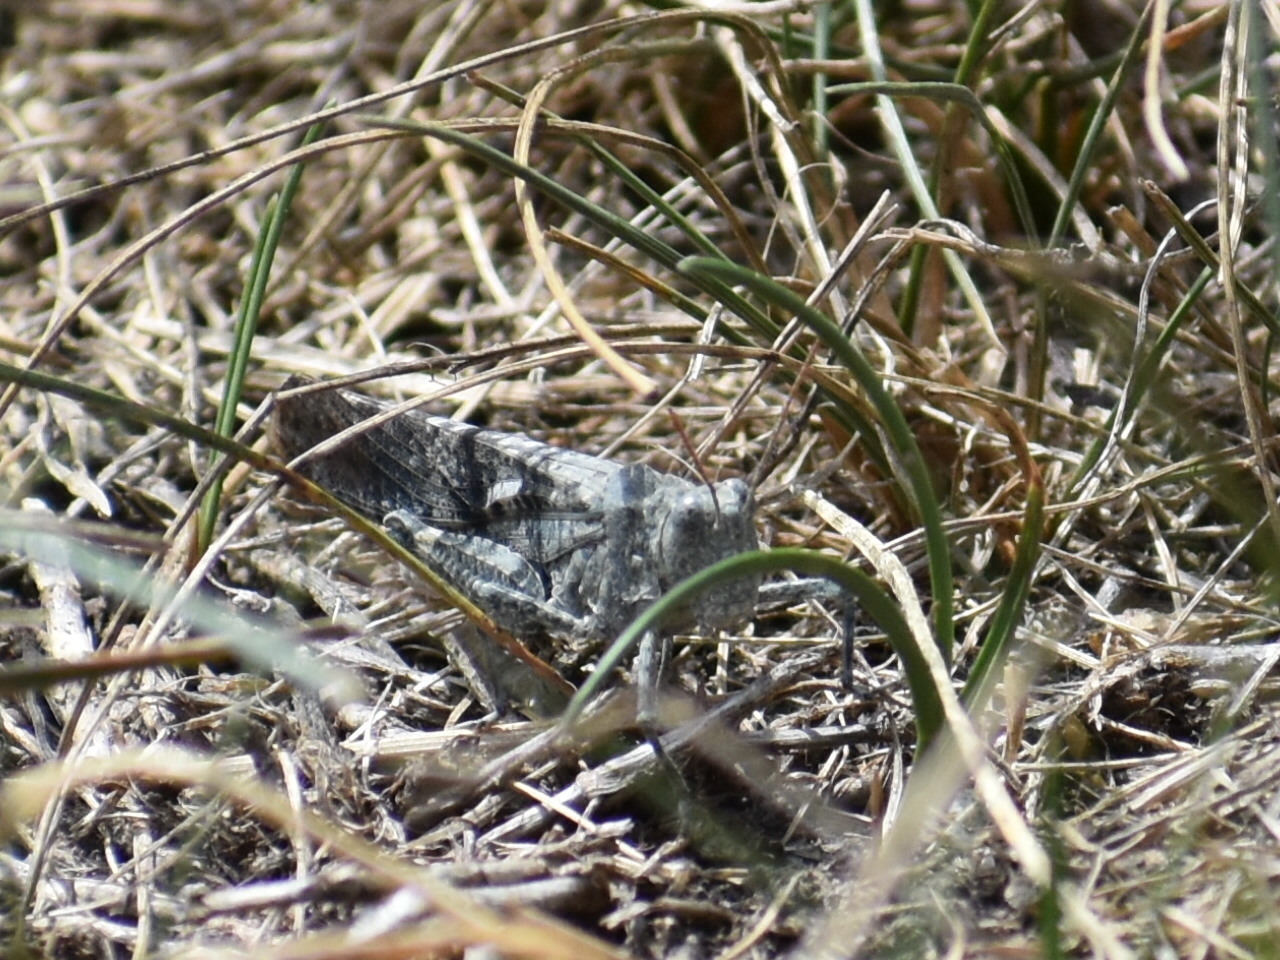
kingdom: Animalia
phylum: Arthropoda
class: Insecta
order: Orthoptera
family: Acrididae
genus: Dissosteira
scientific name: Dissosteira carolina
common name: Carolina grasshopper
